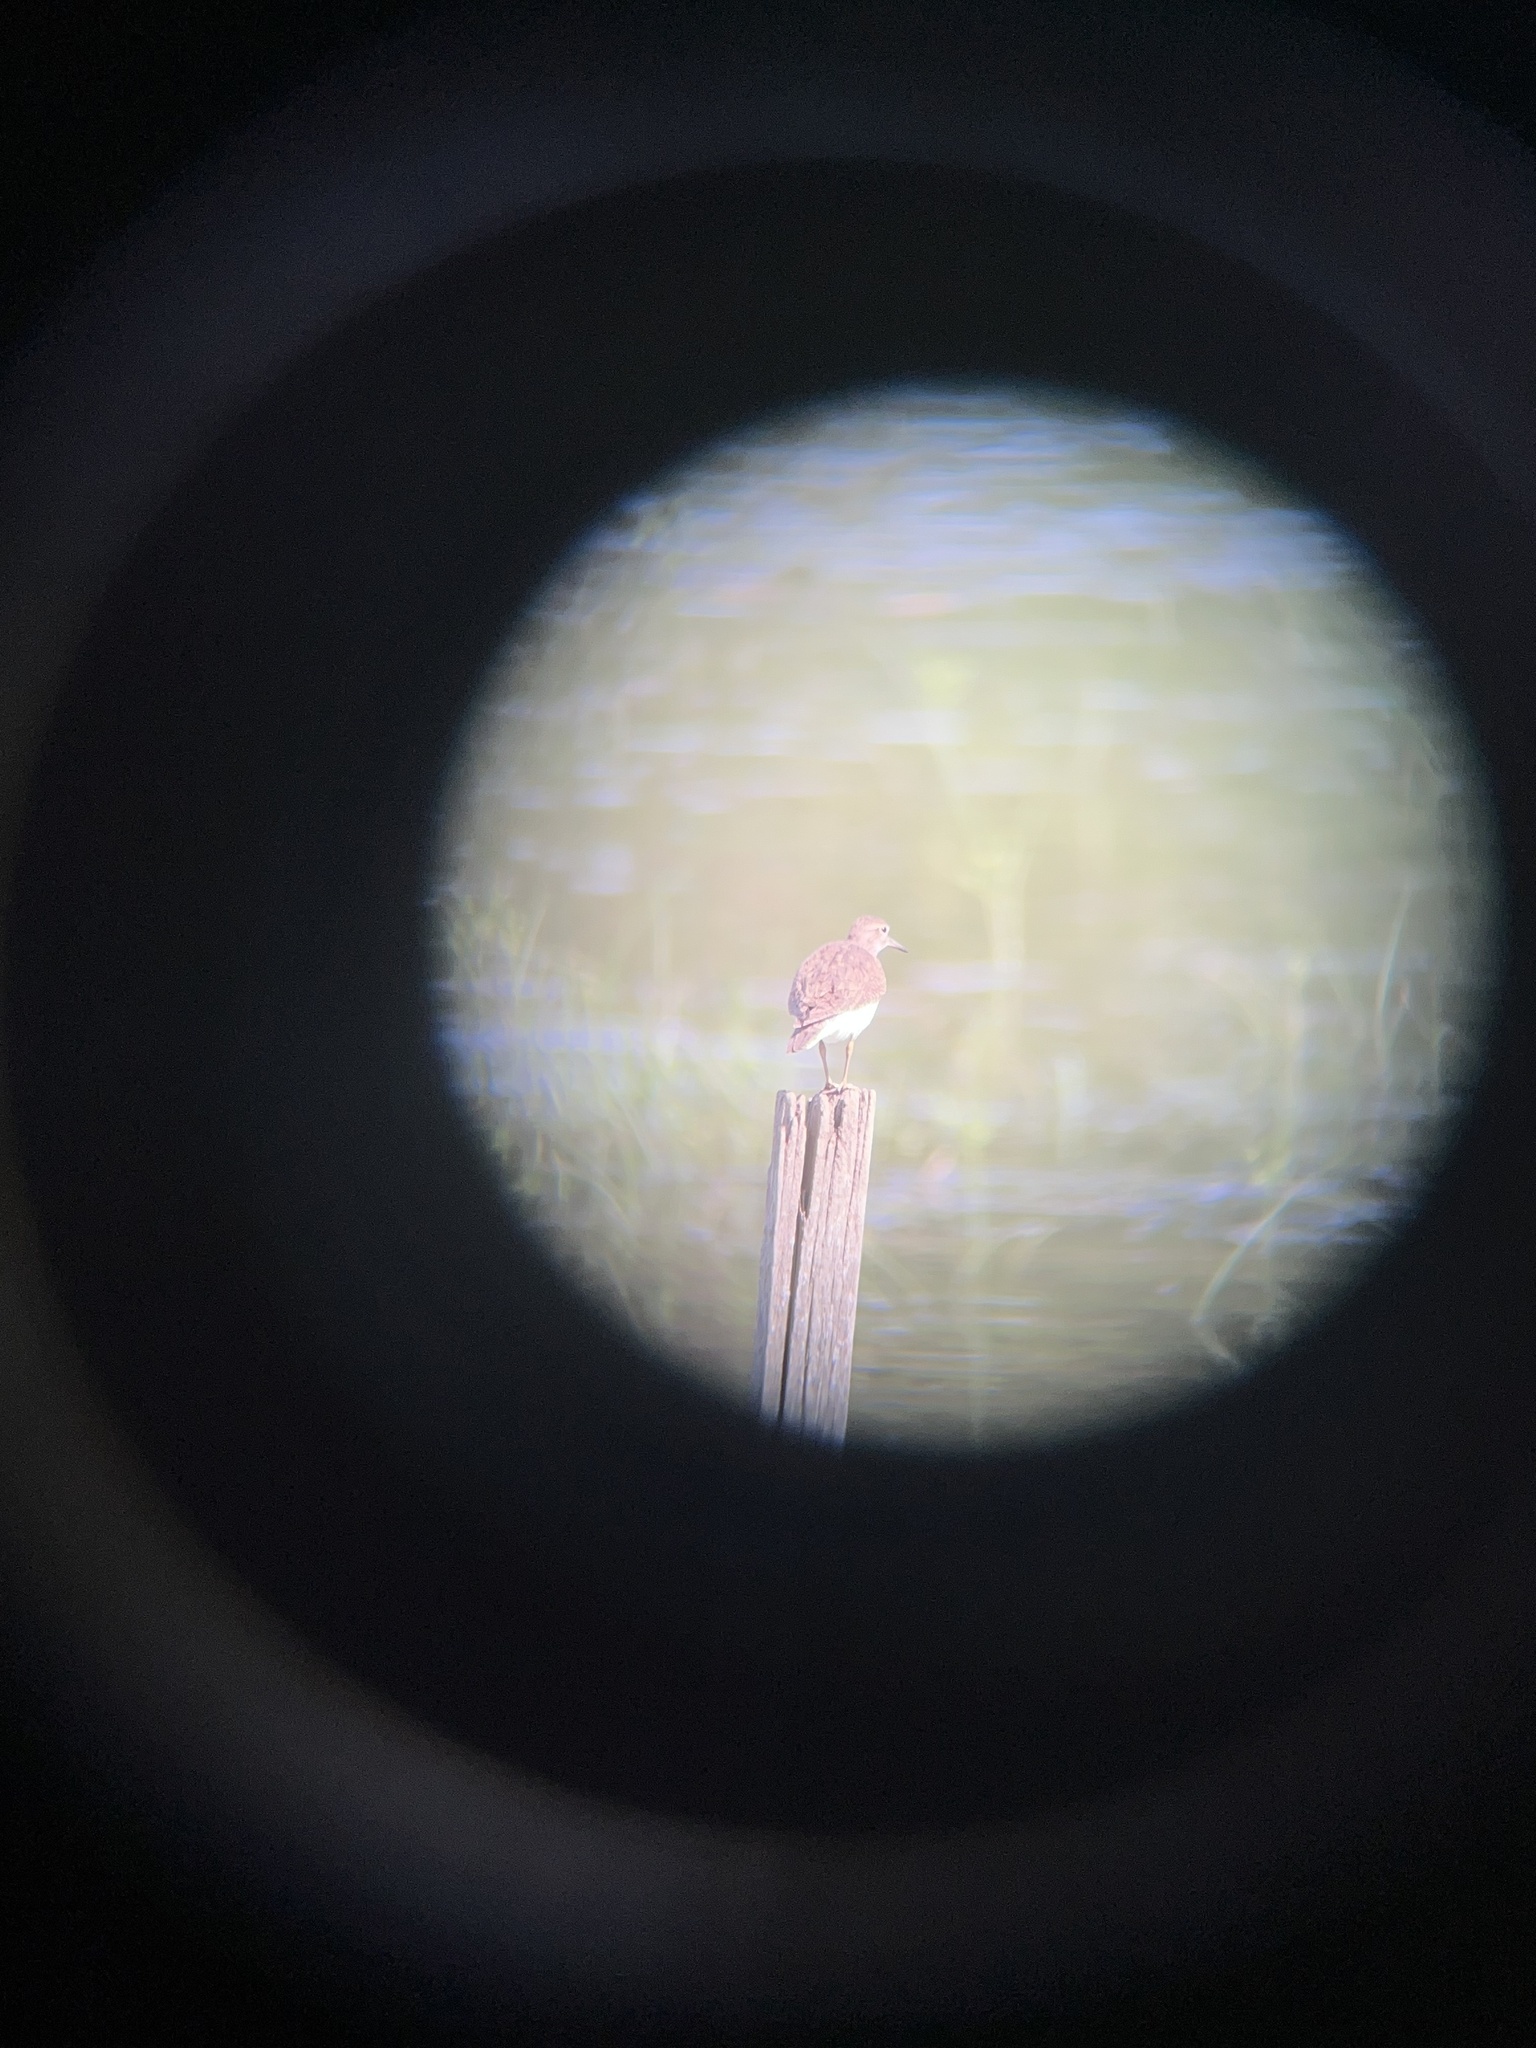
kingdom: Animalia
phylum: Chordata
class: Aves
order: Charadriiformes
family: Scolopacidae
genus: Actitis
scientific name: Actitis hypoleucos
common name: Common sandpiper
